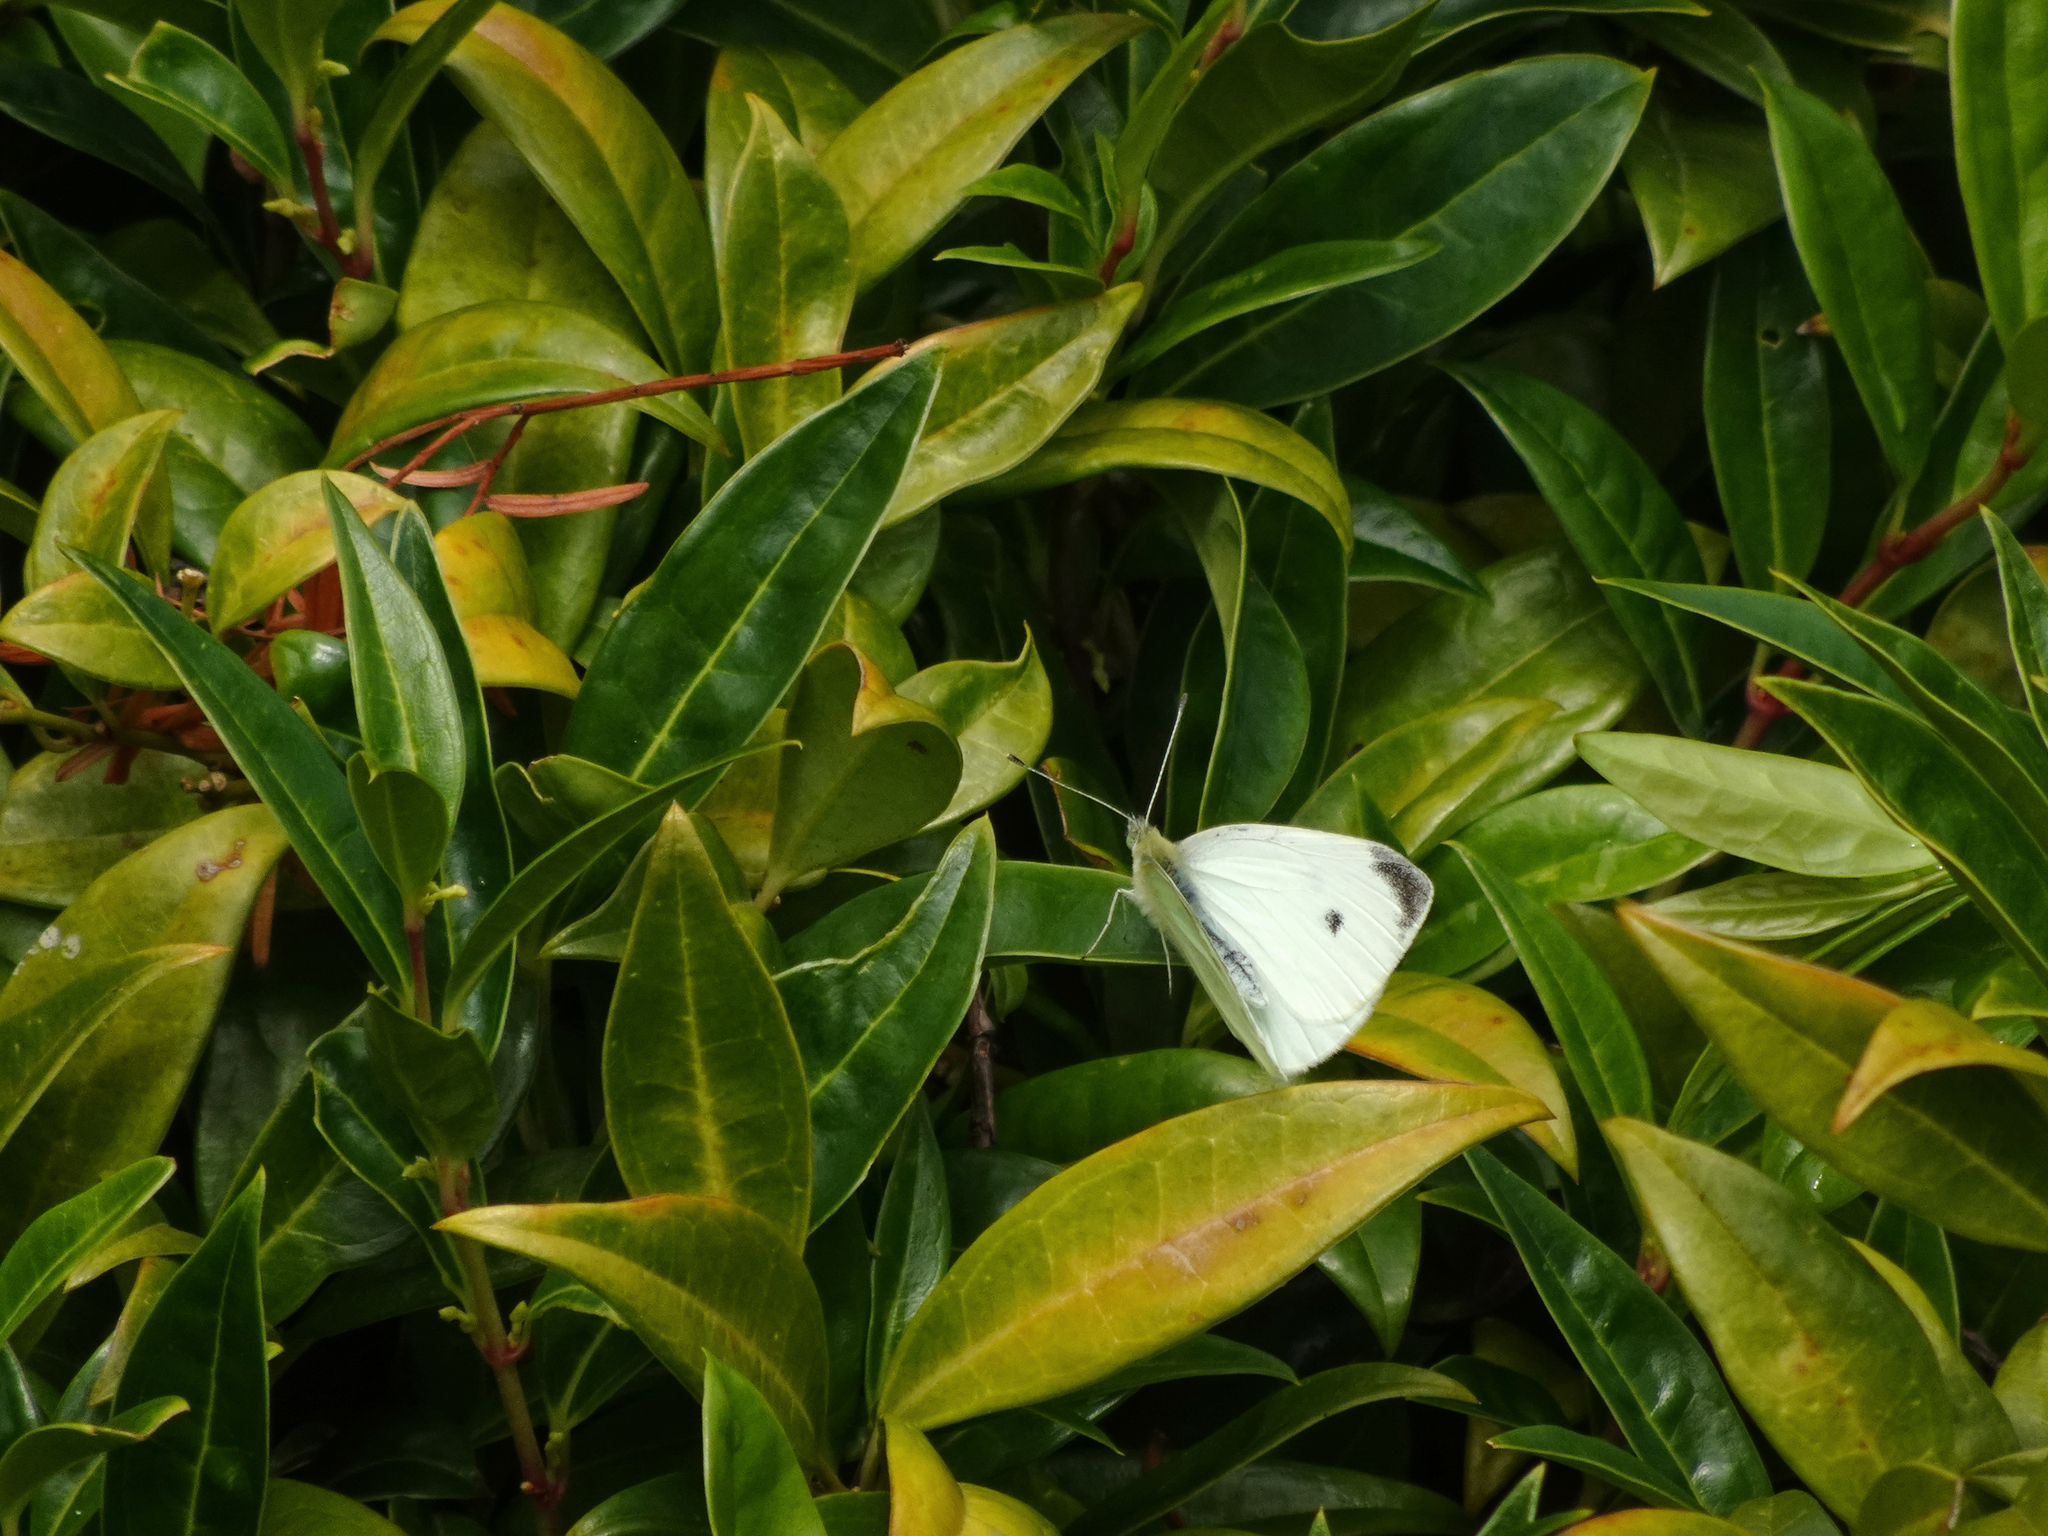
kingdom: Animalia
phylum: Arthropoda
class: Insecta
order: Lepidoptera
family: Pieridae
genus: Pieris
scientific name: Pieris rapae
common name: Small white
